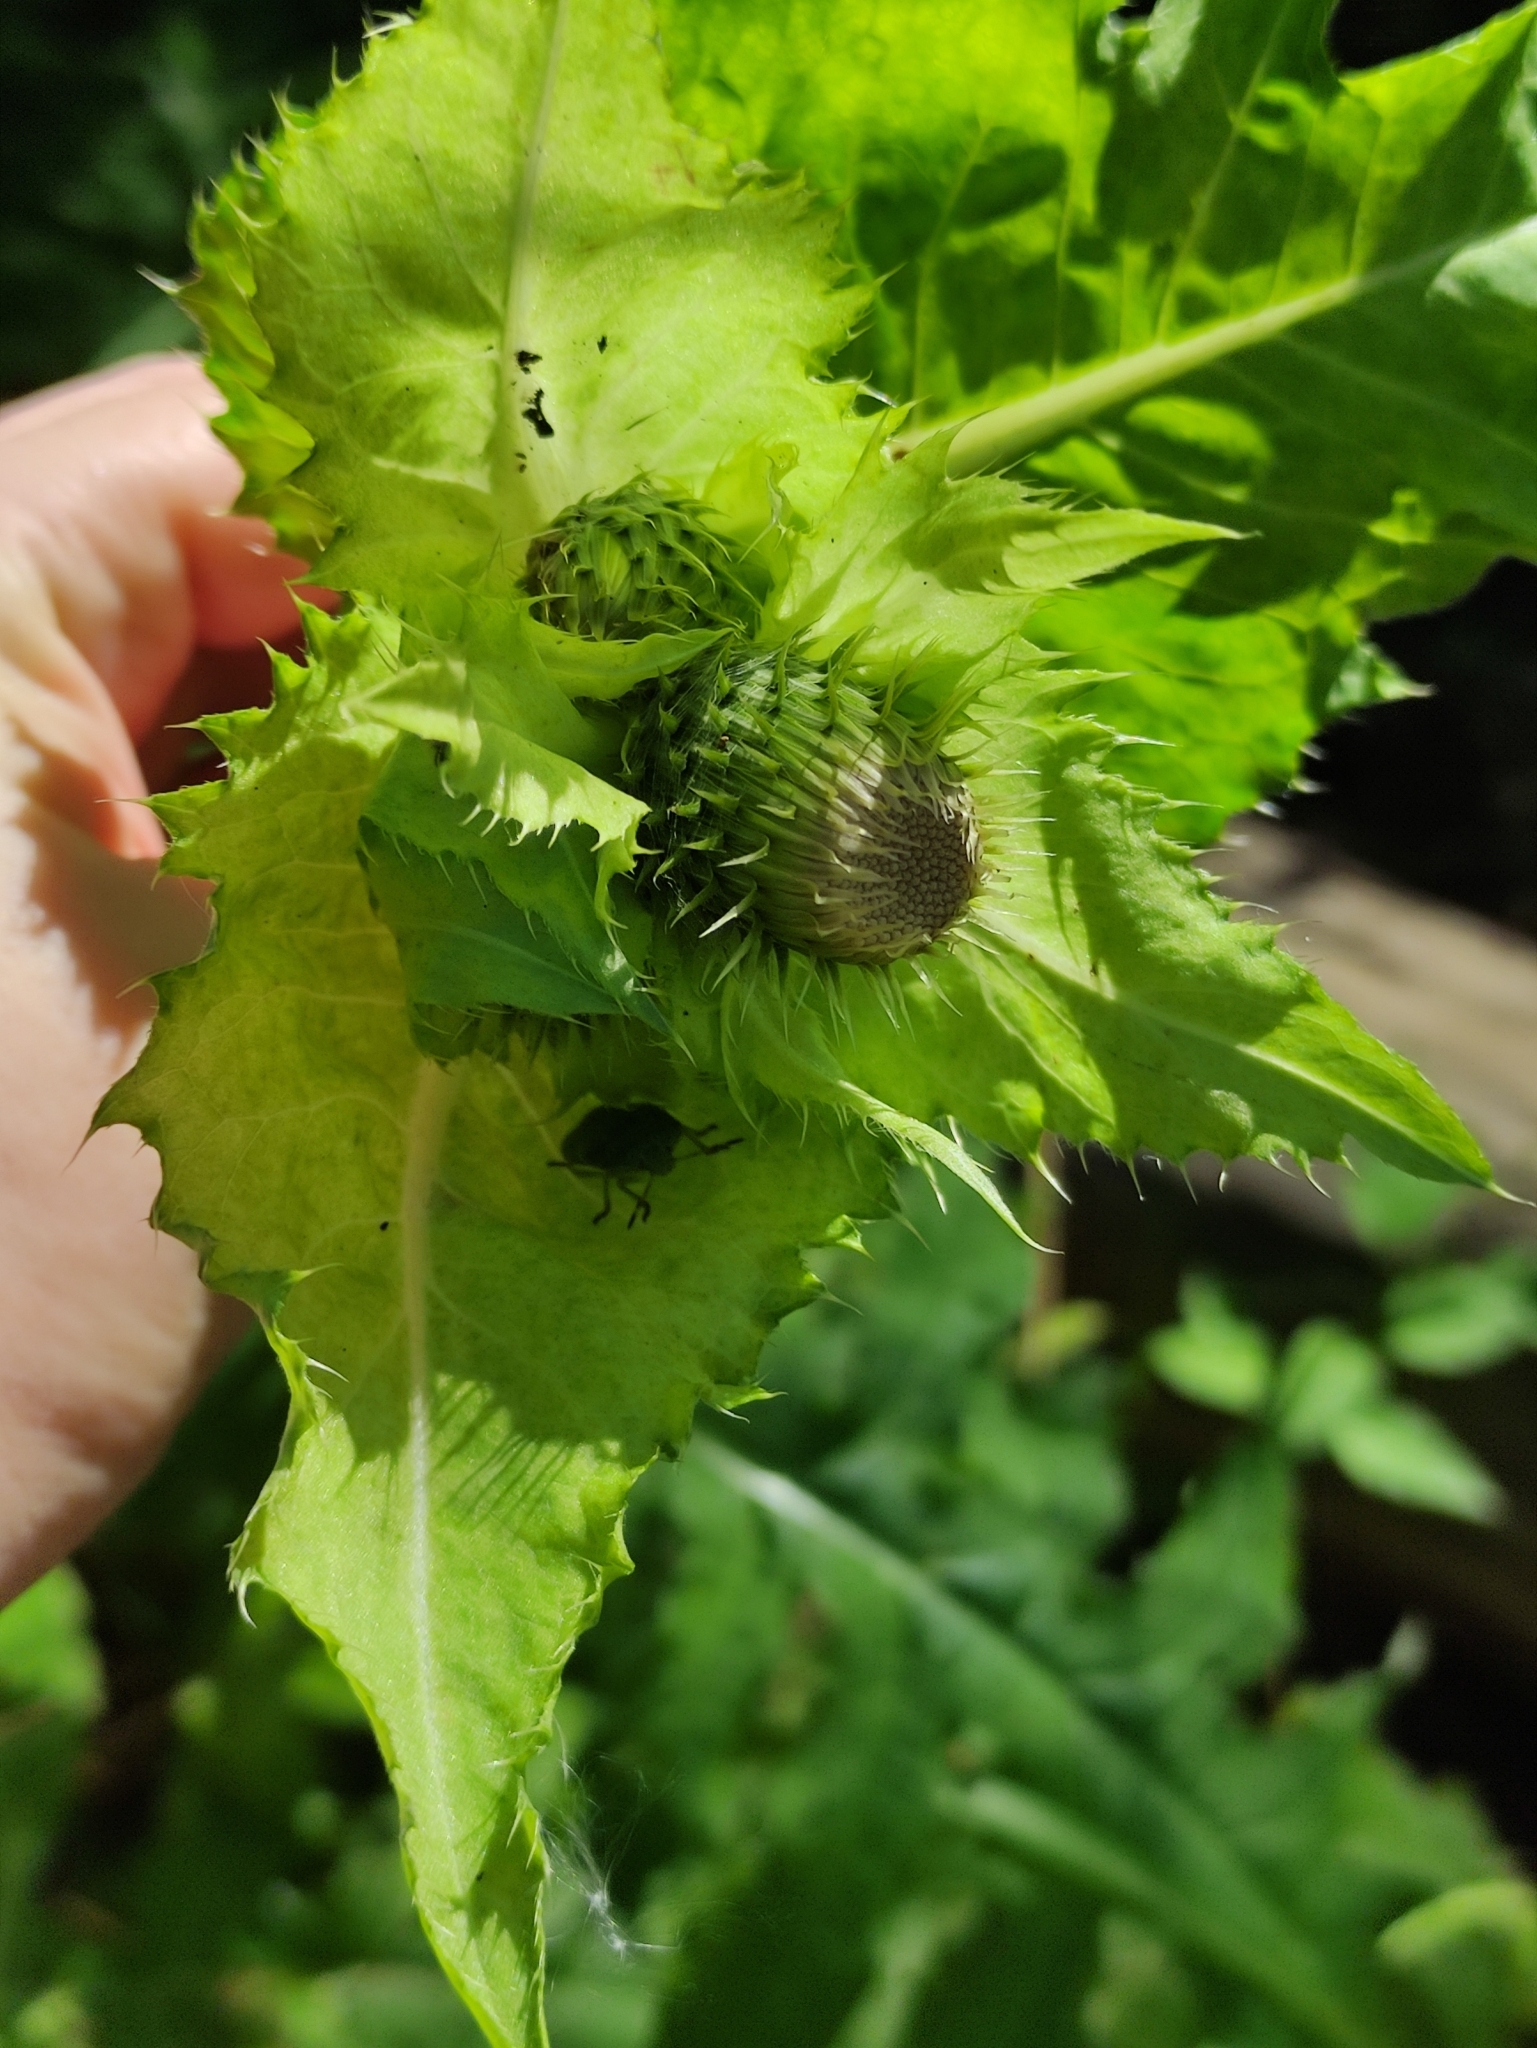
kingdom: Plantae
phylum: Tracheophyta
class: Magnoliopsida
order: Asterales
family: Asteraceae
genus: Cirsium
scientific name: Cirsium oleraceum
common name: Cabbage thistle
